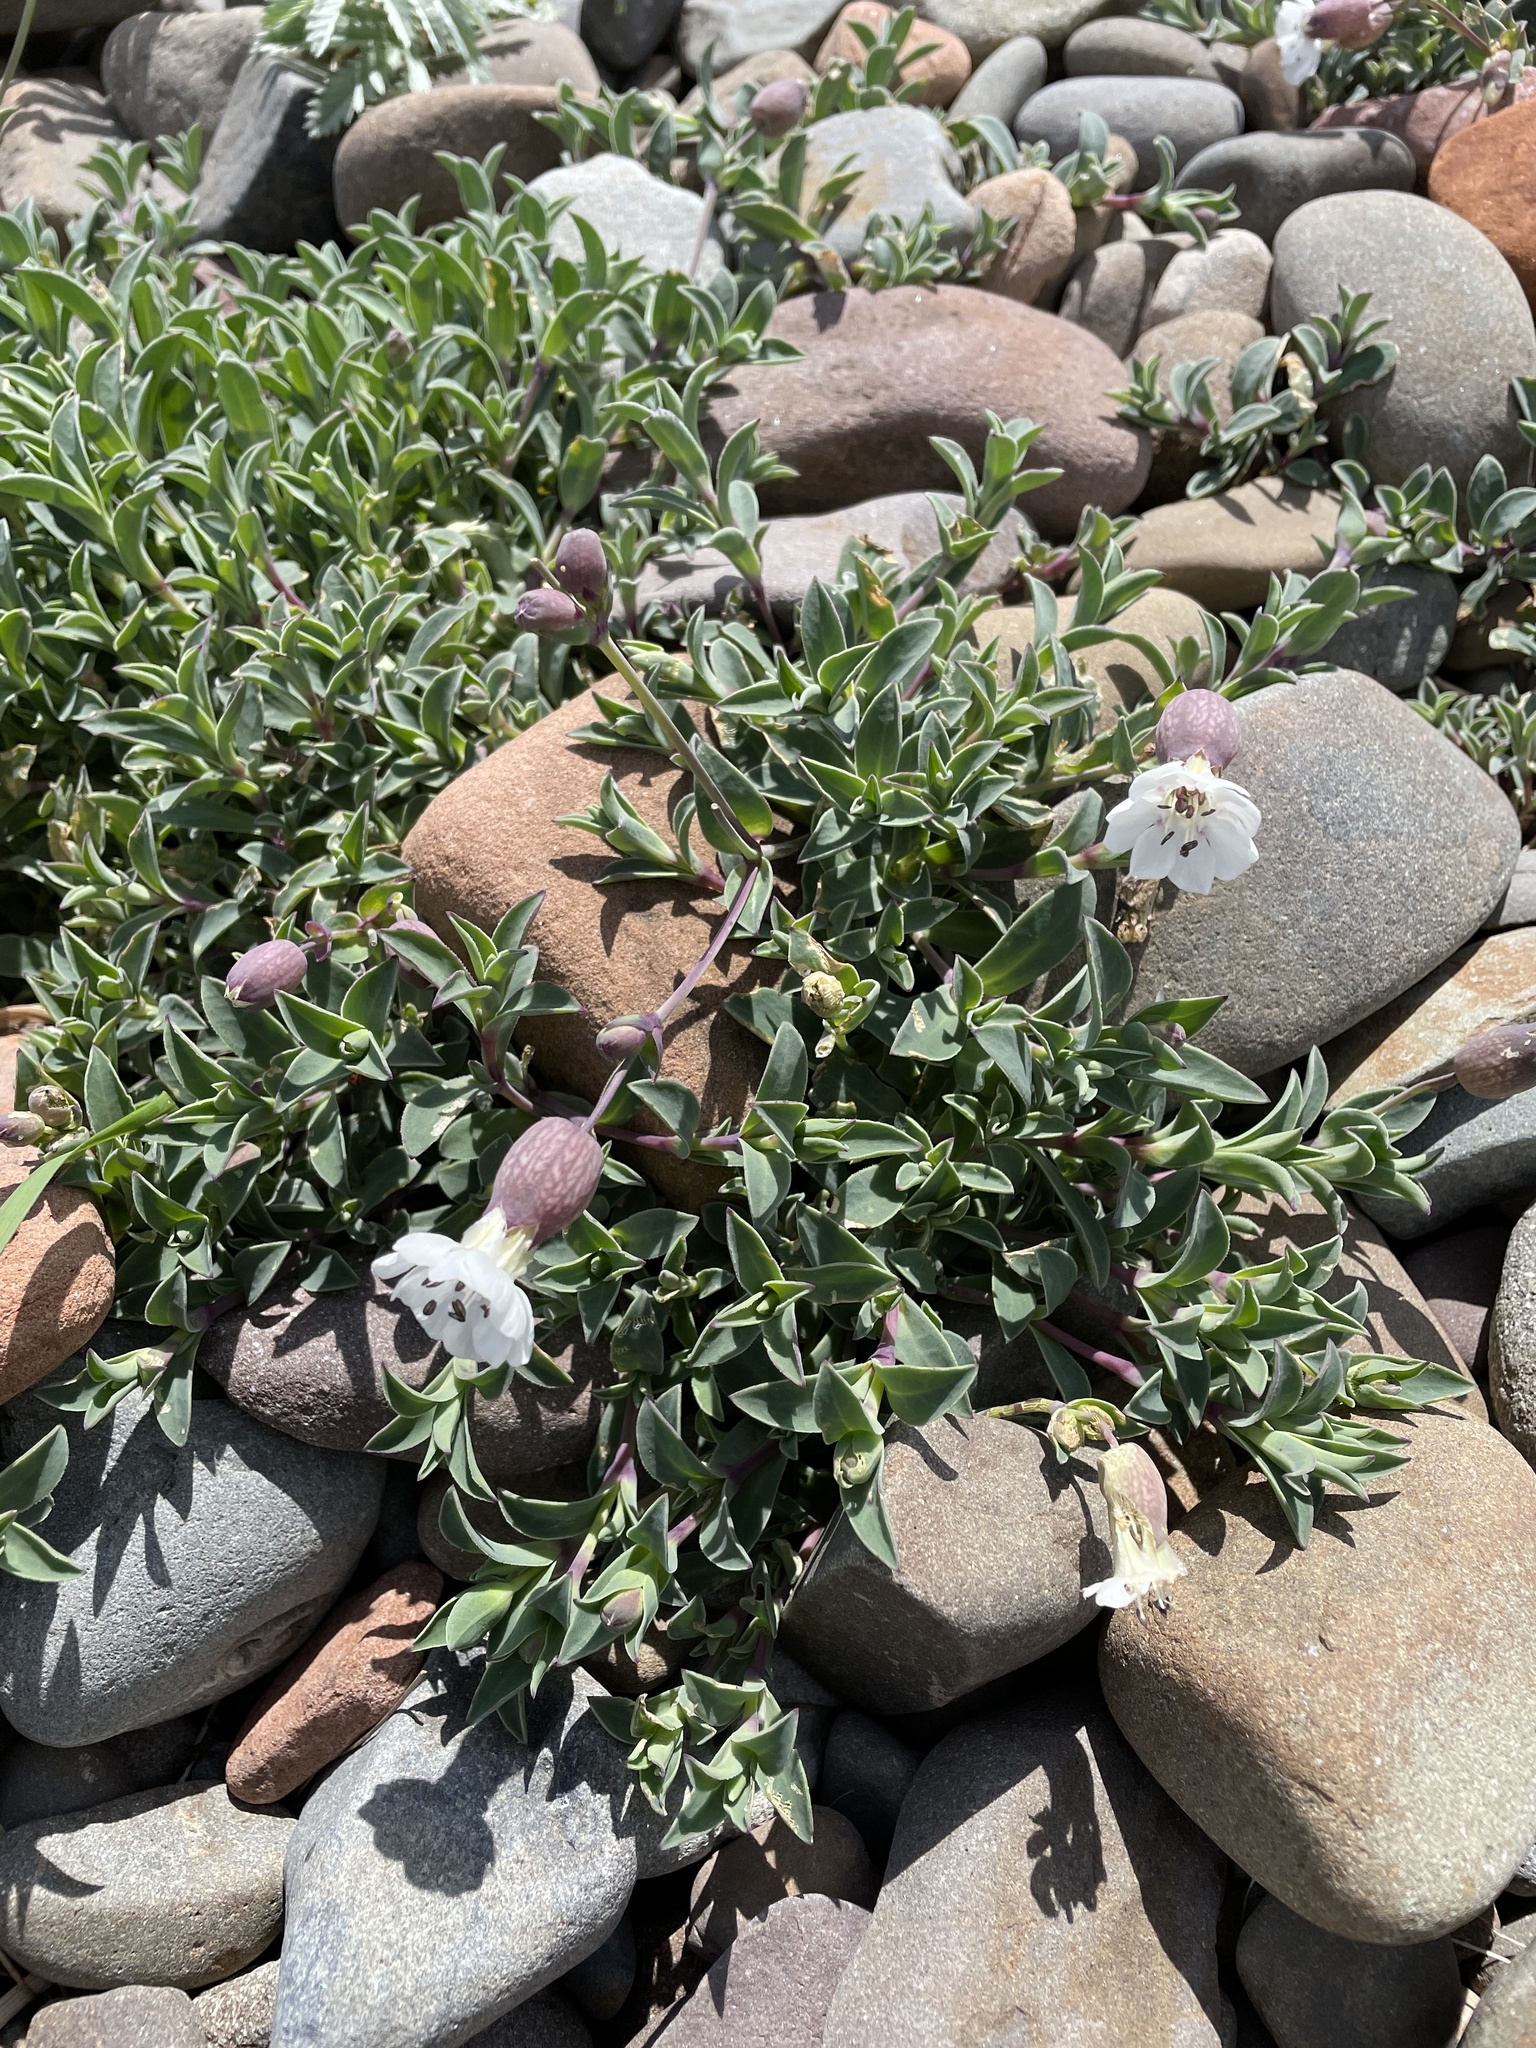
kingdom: Plantae
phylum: Tracheophyta
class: Magnoliopsida
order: Caryophyllales
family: Caryophyllaceae
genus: Silene
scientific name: Silene uniflora
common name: Sea campion
